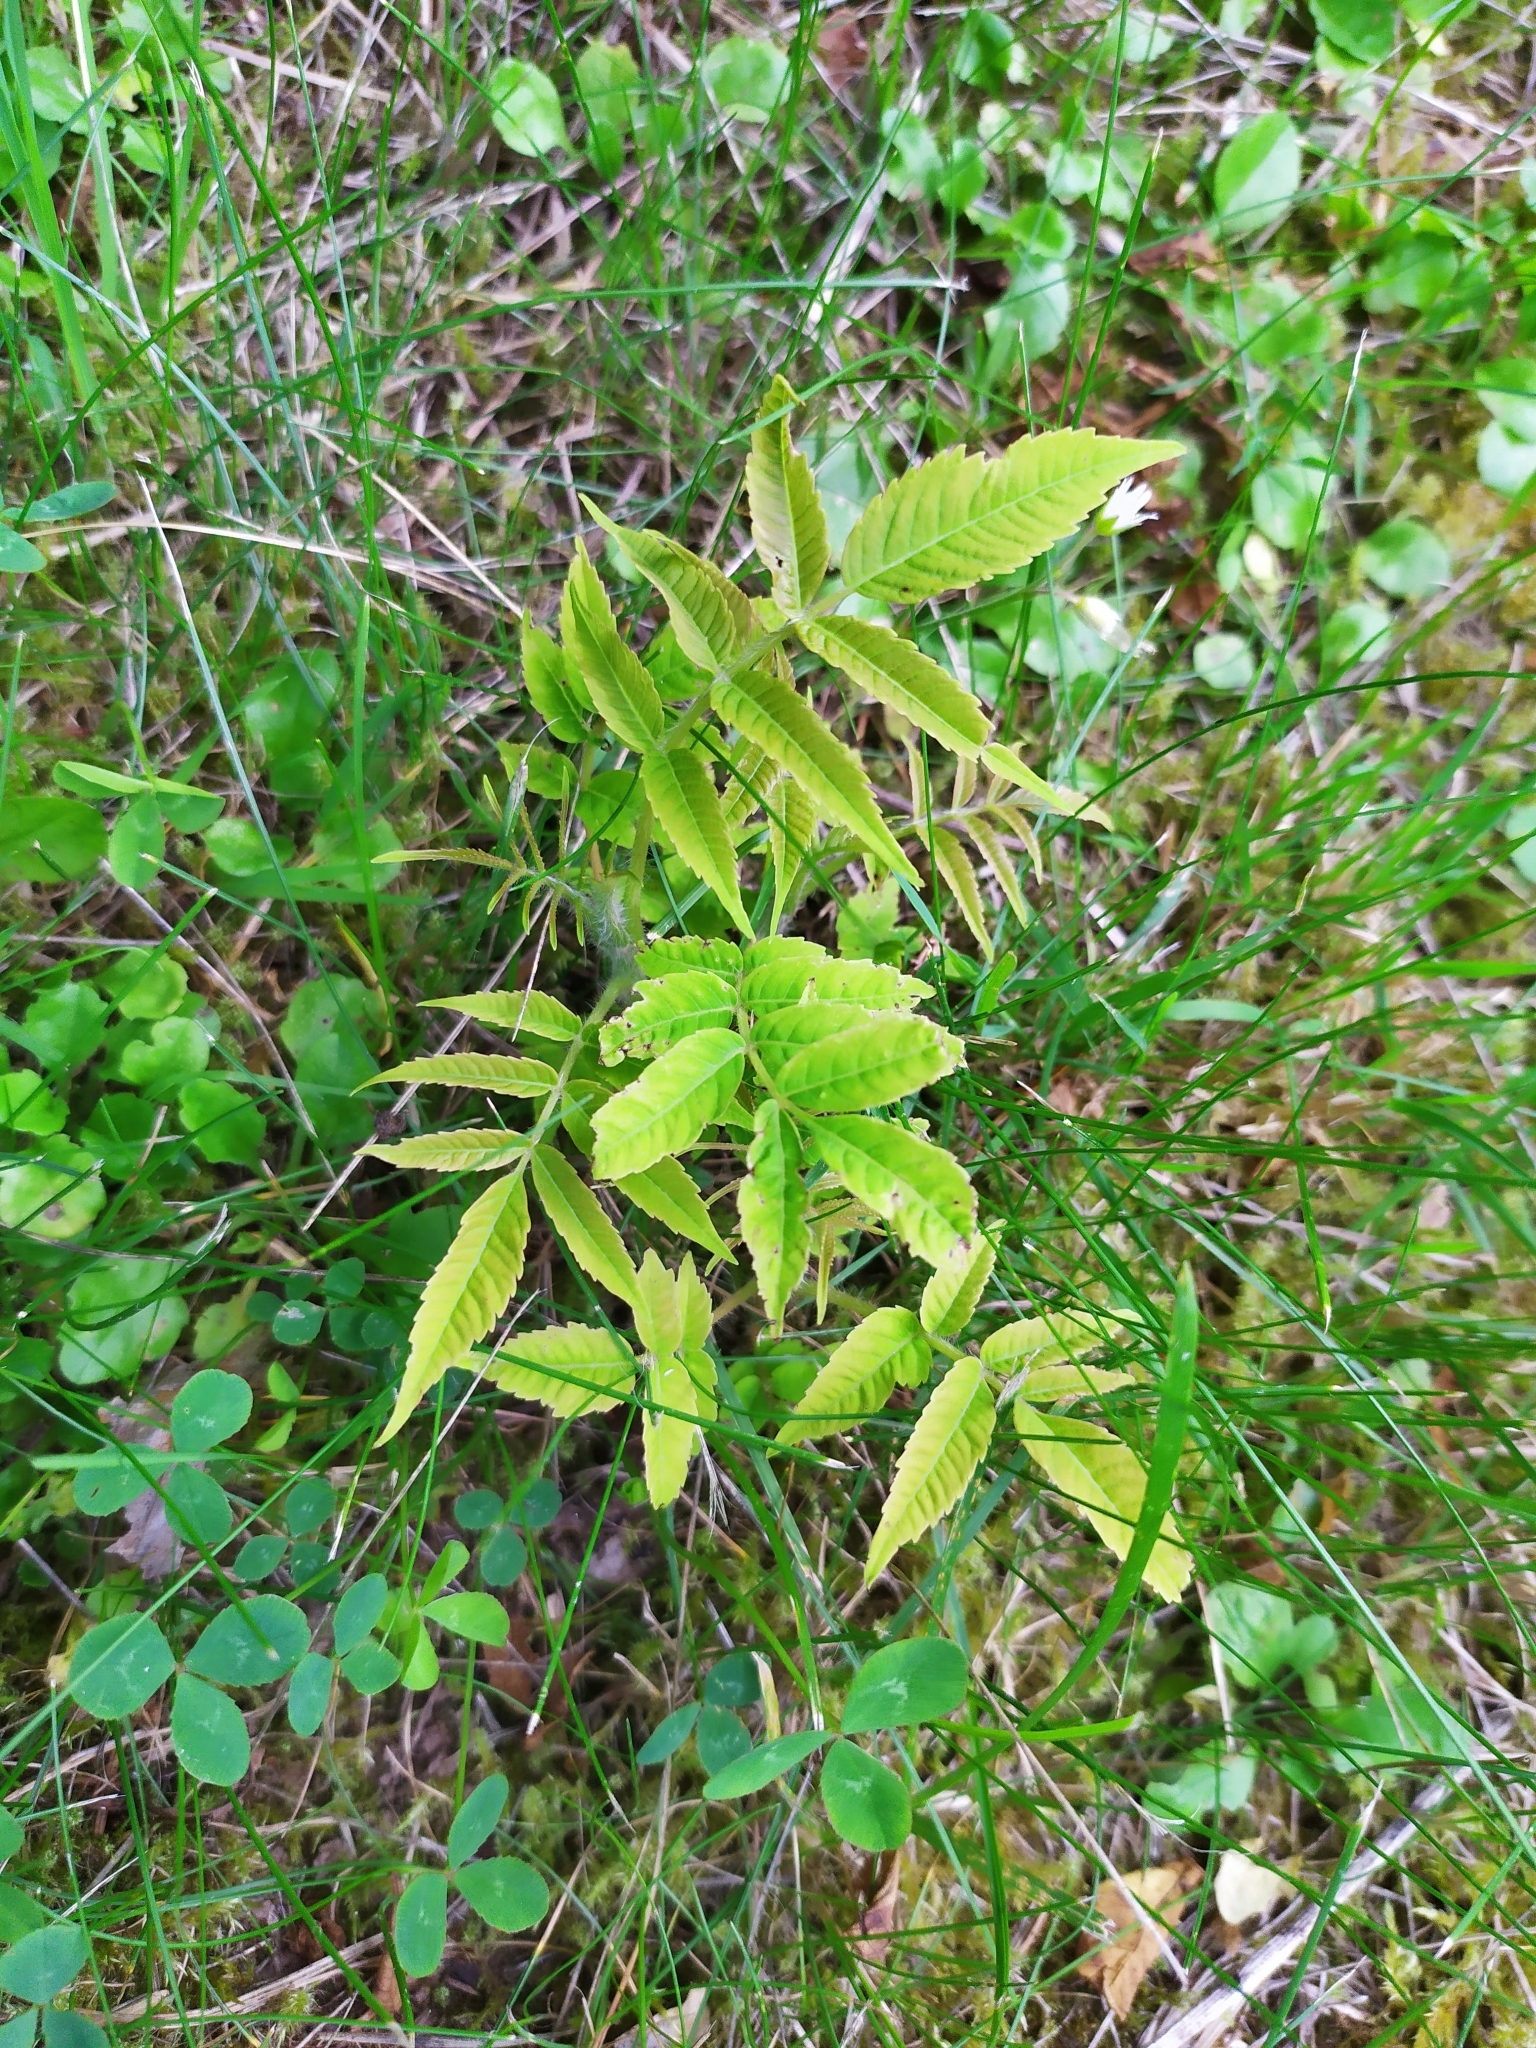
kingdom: Plantae
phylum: Tracheophyta
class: Magnoliopsida
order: Sapindales
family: Anacardiaceae
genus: Rhus
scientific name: Rhus typhina
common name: Staghorn sumac
